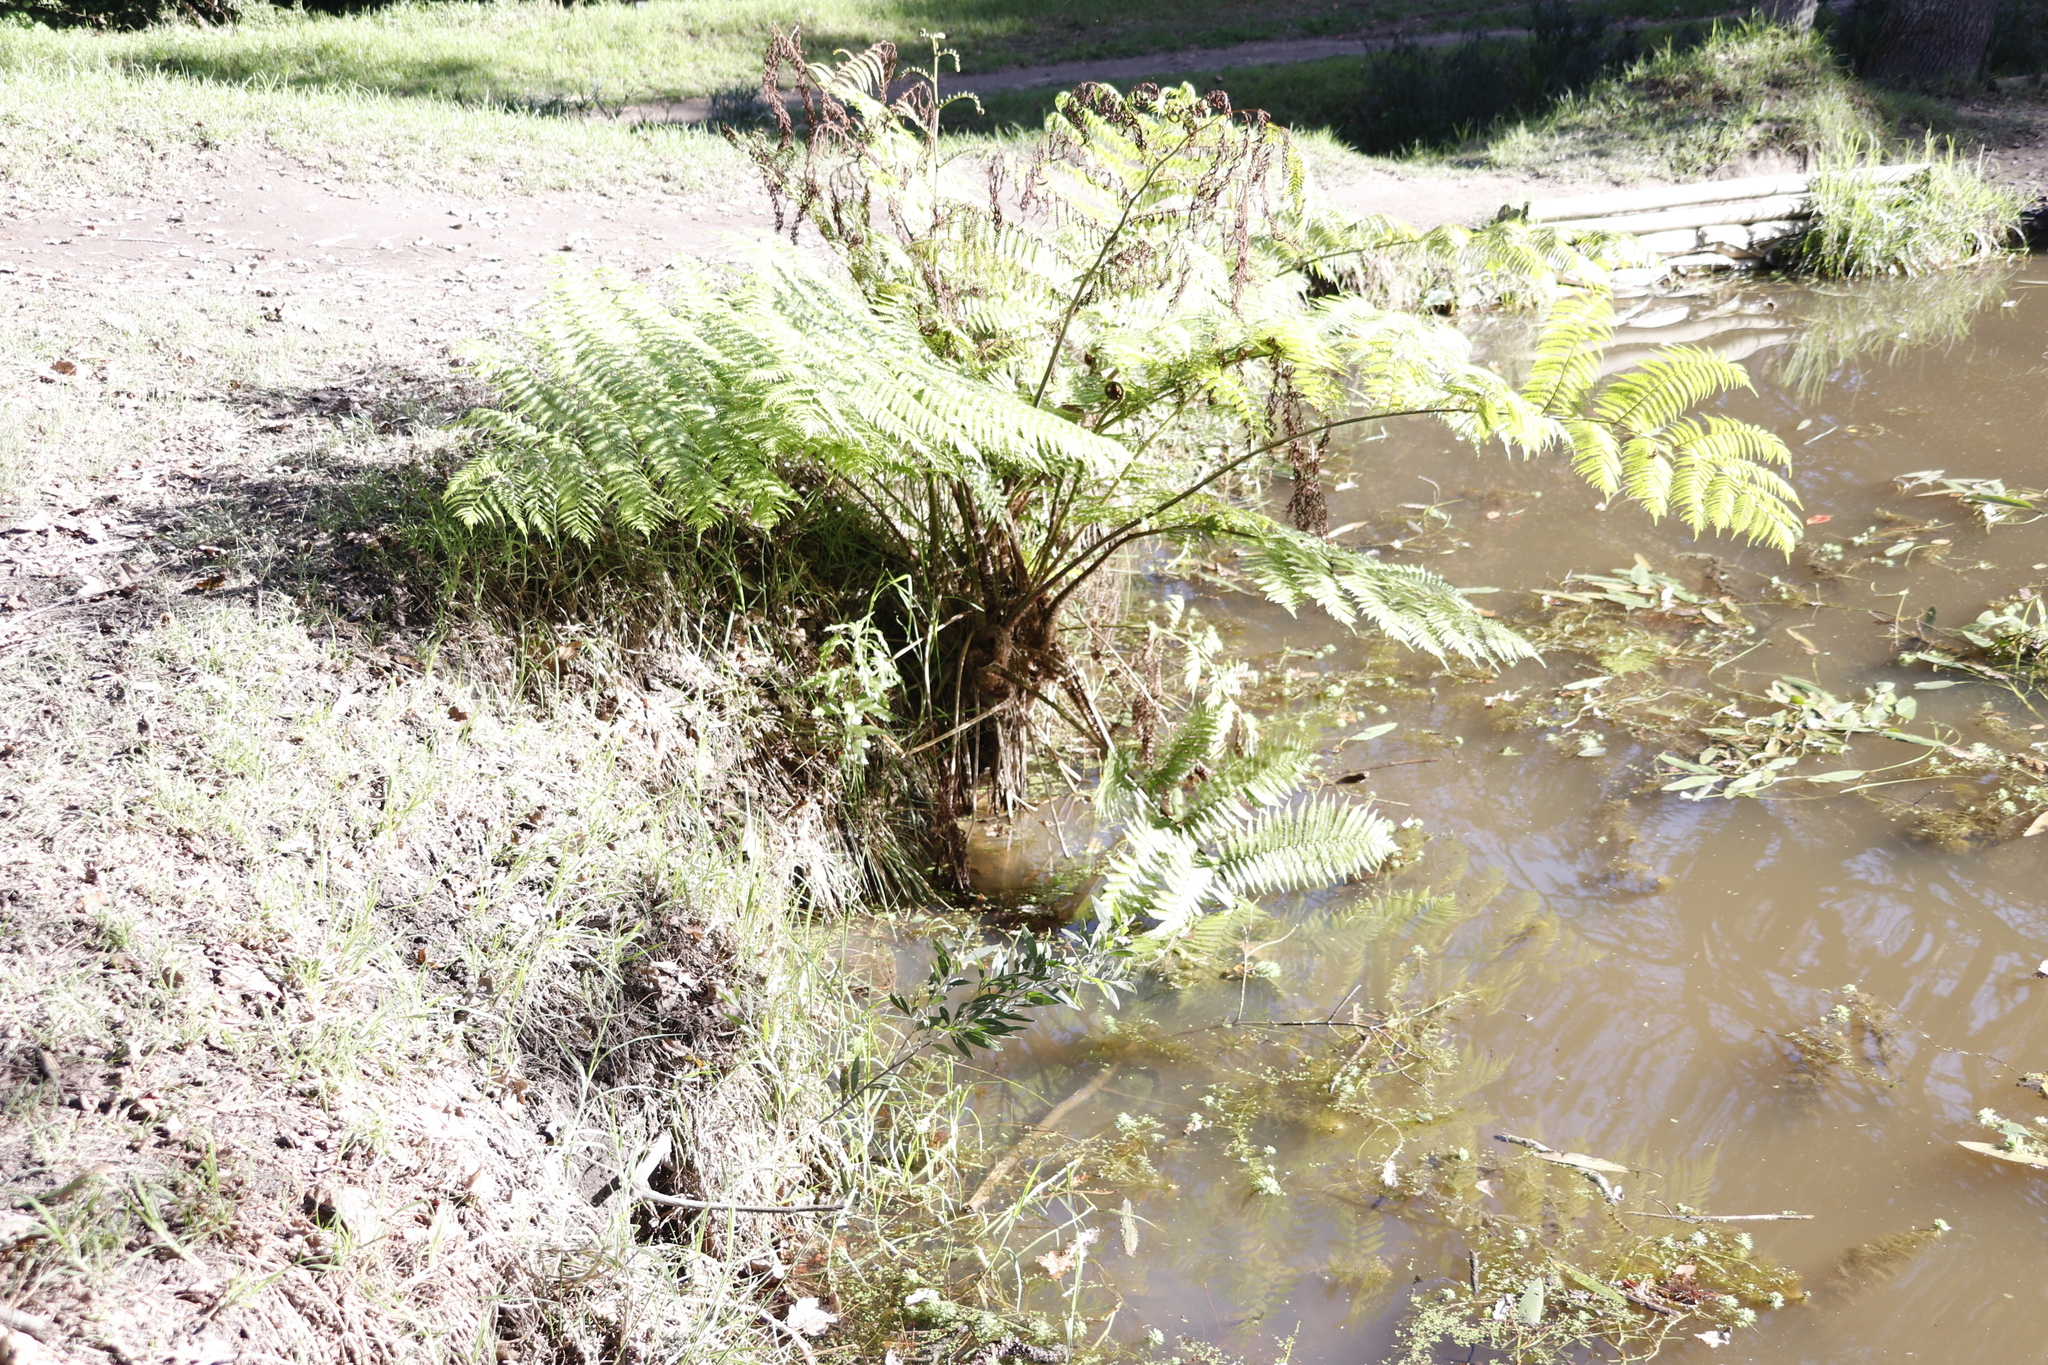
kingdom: Plantae
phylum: Tracheophyta
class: Polypodiopsida
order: Cyatheales
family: Cyatheaceae
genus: Sphaeropteris
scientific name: Sphaeropteris cooperi
